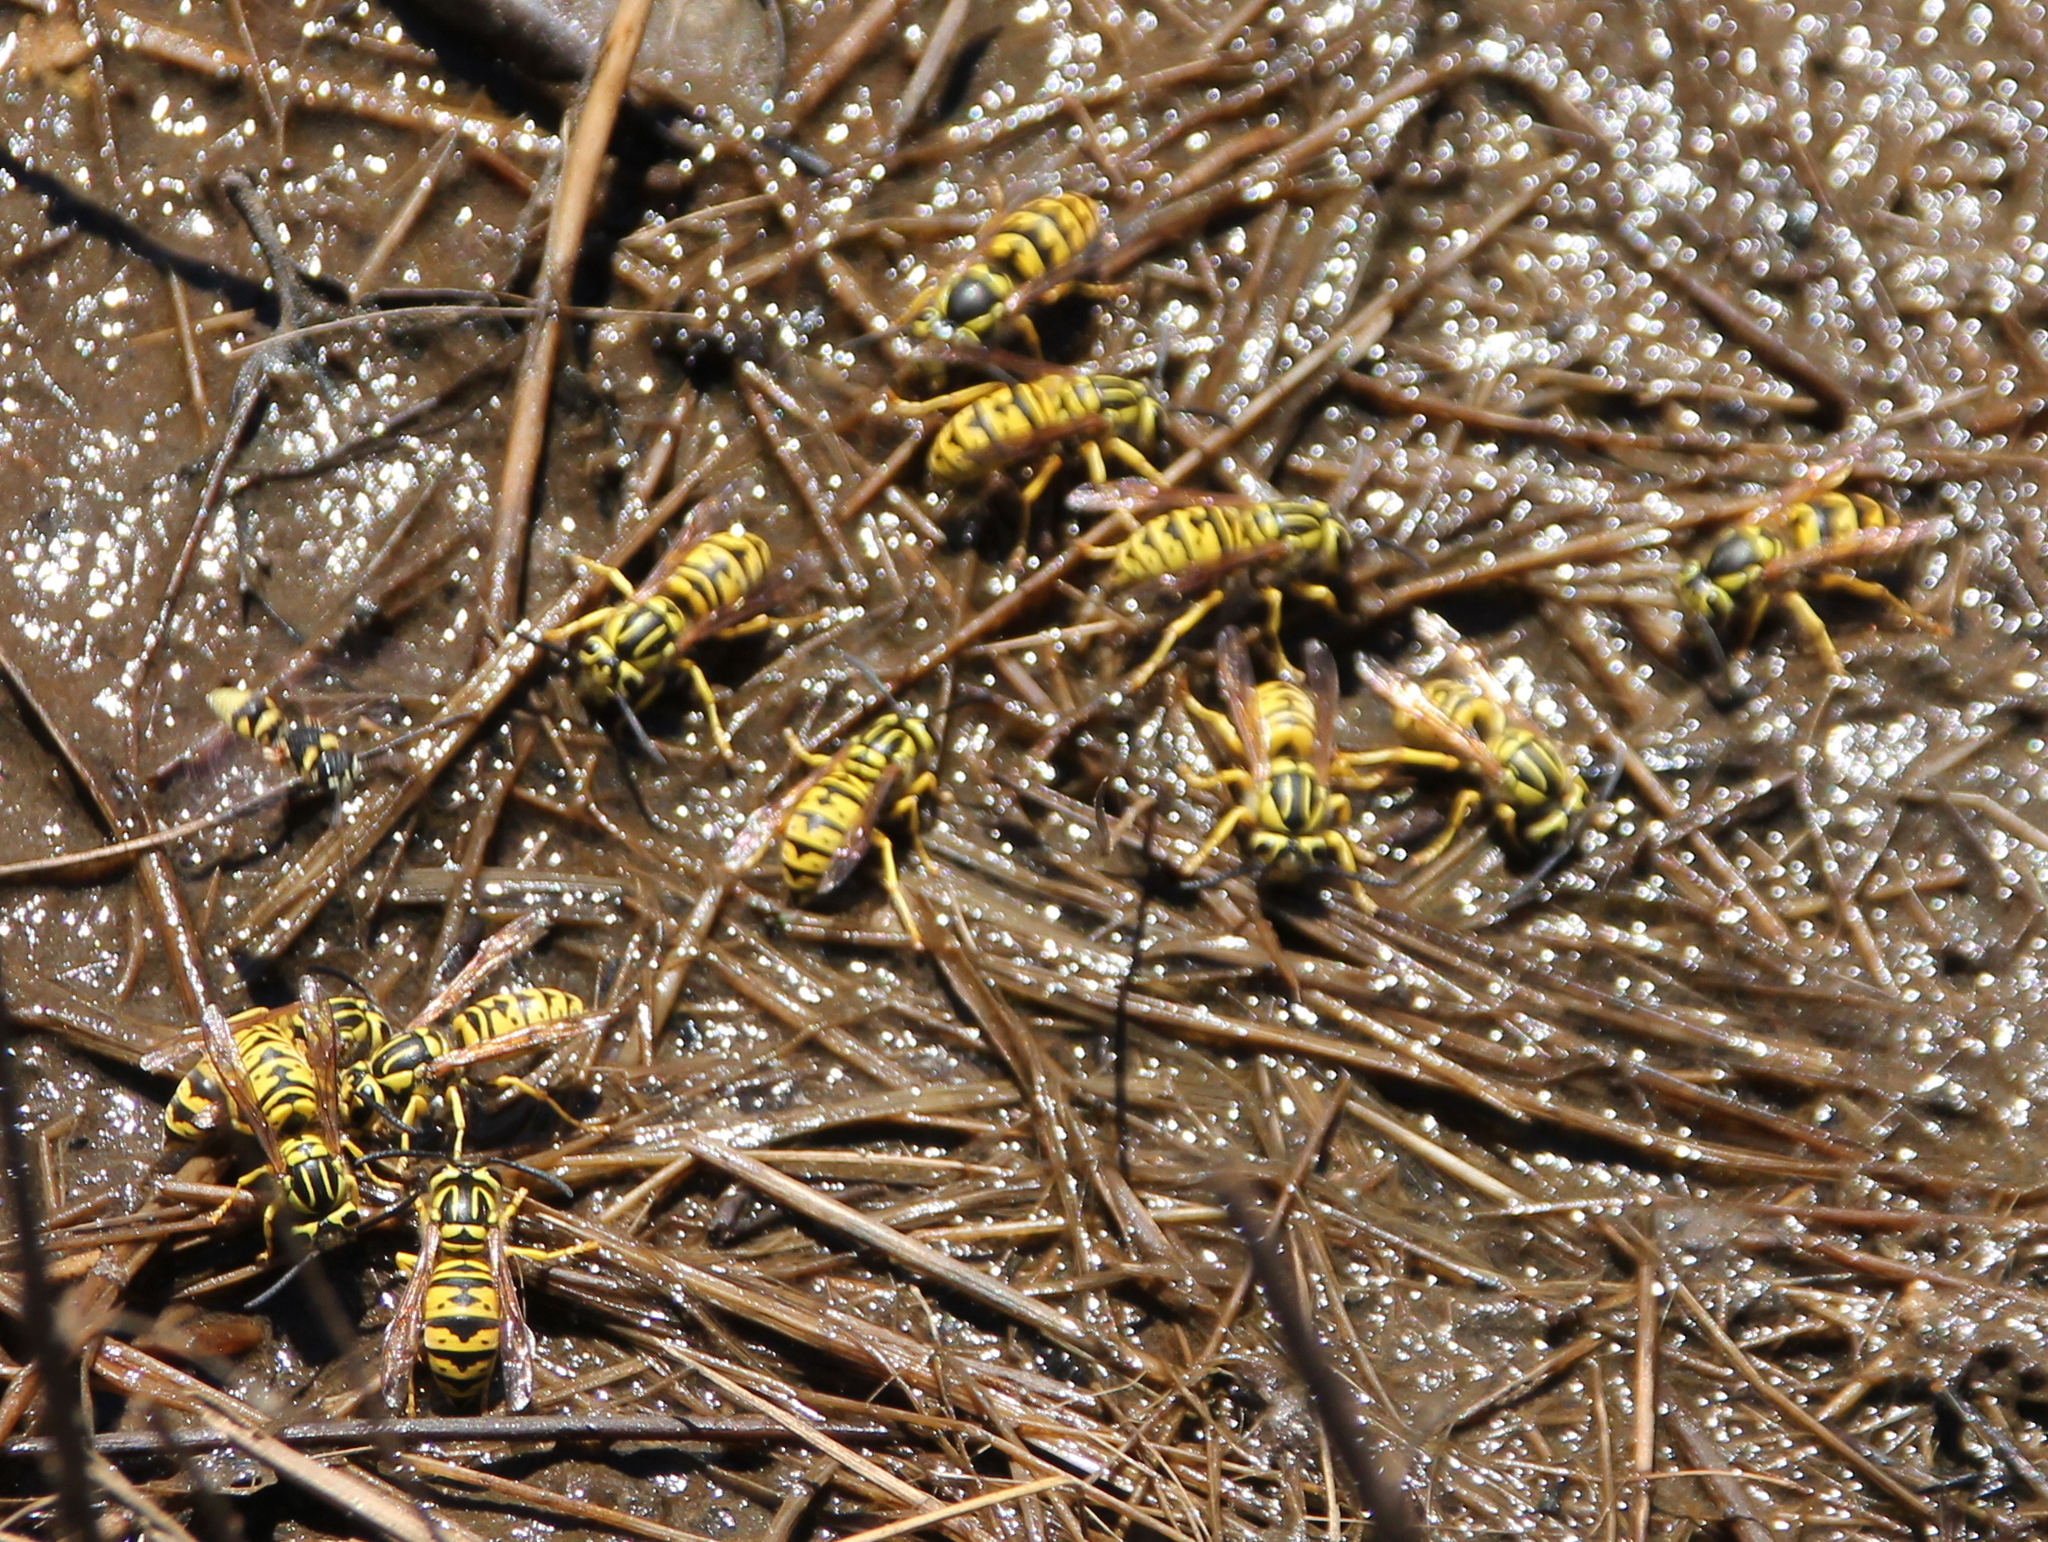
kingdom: Animalia
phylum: Arthropoda
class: Insecta
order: Hymenoptera
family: Vespidae
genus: Vespula
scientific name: Vespula sulphurea
